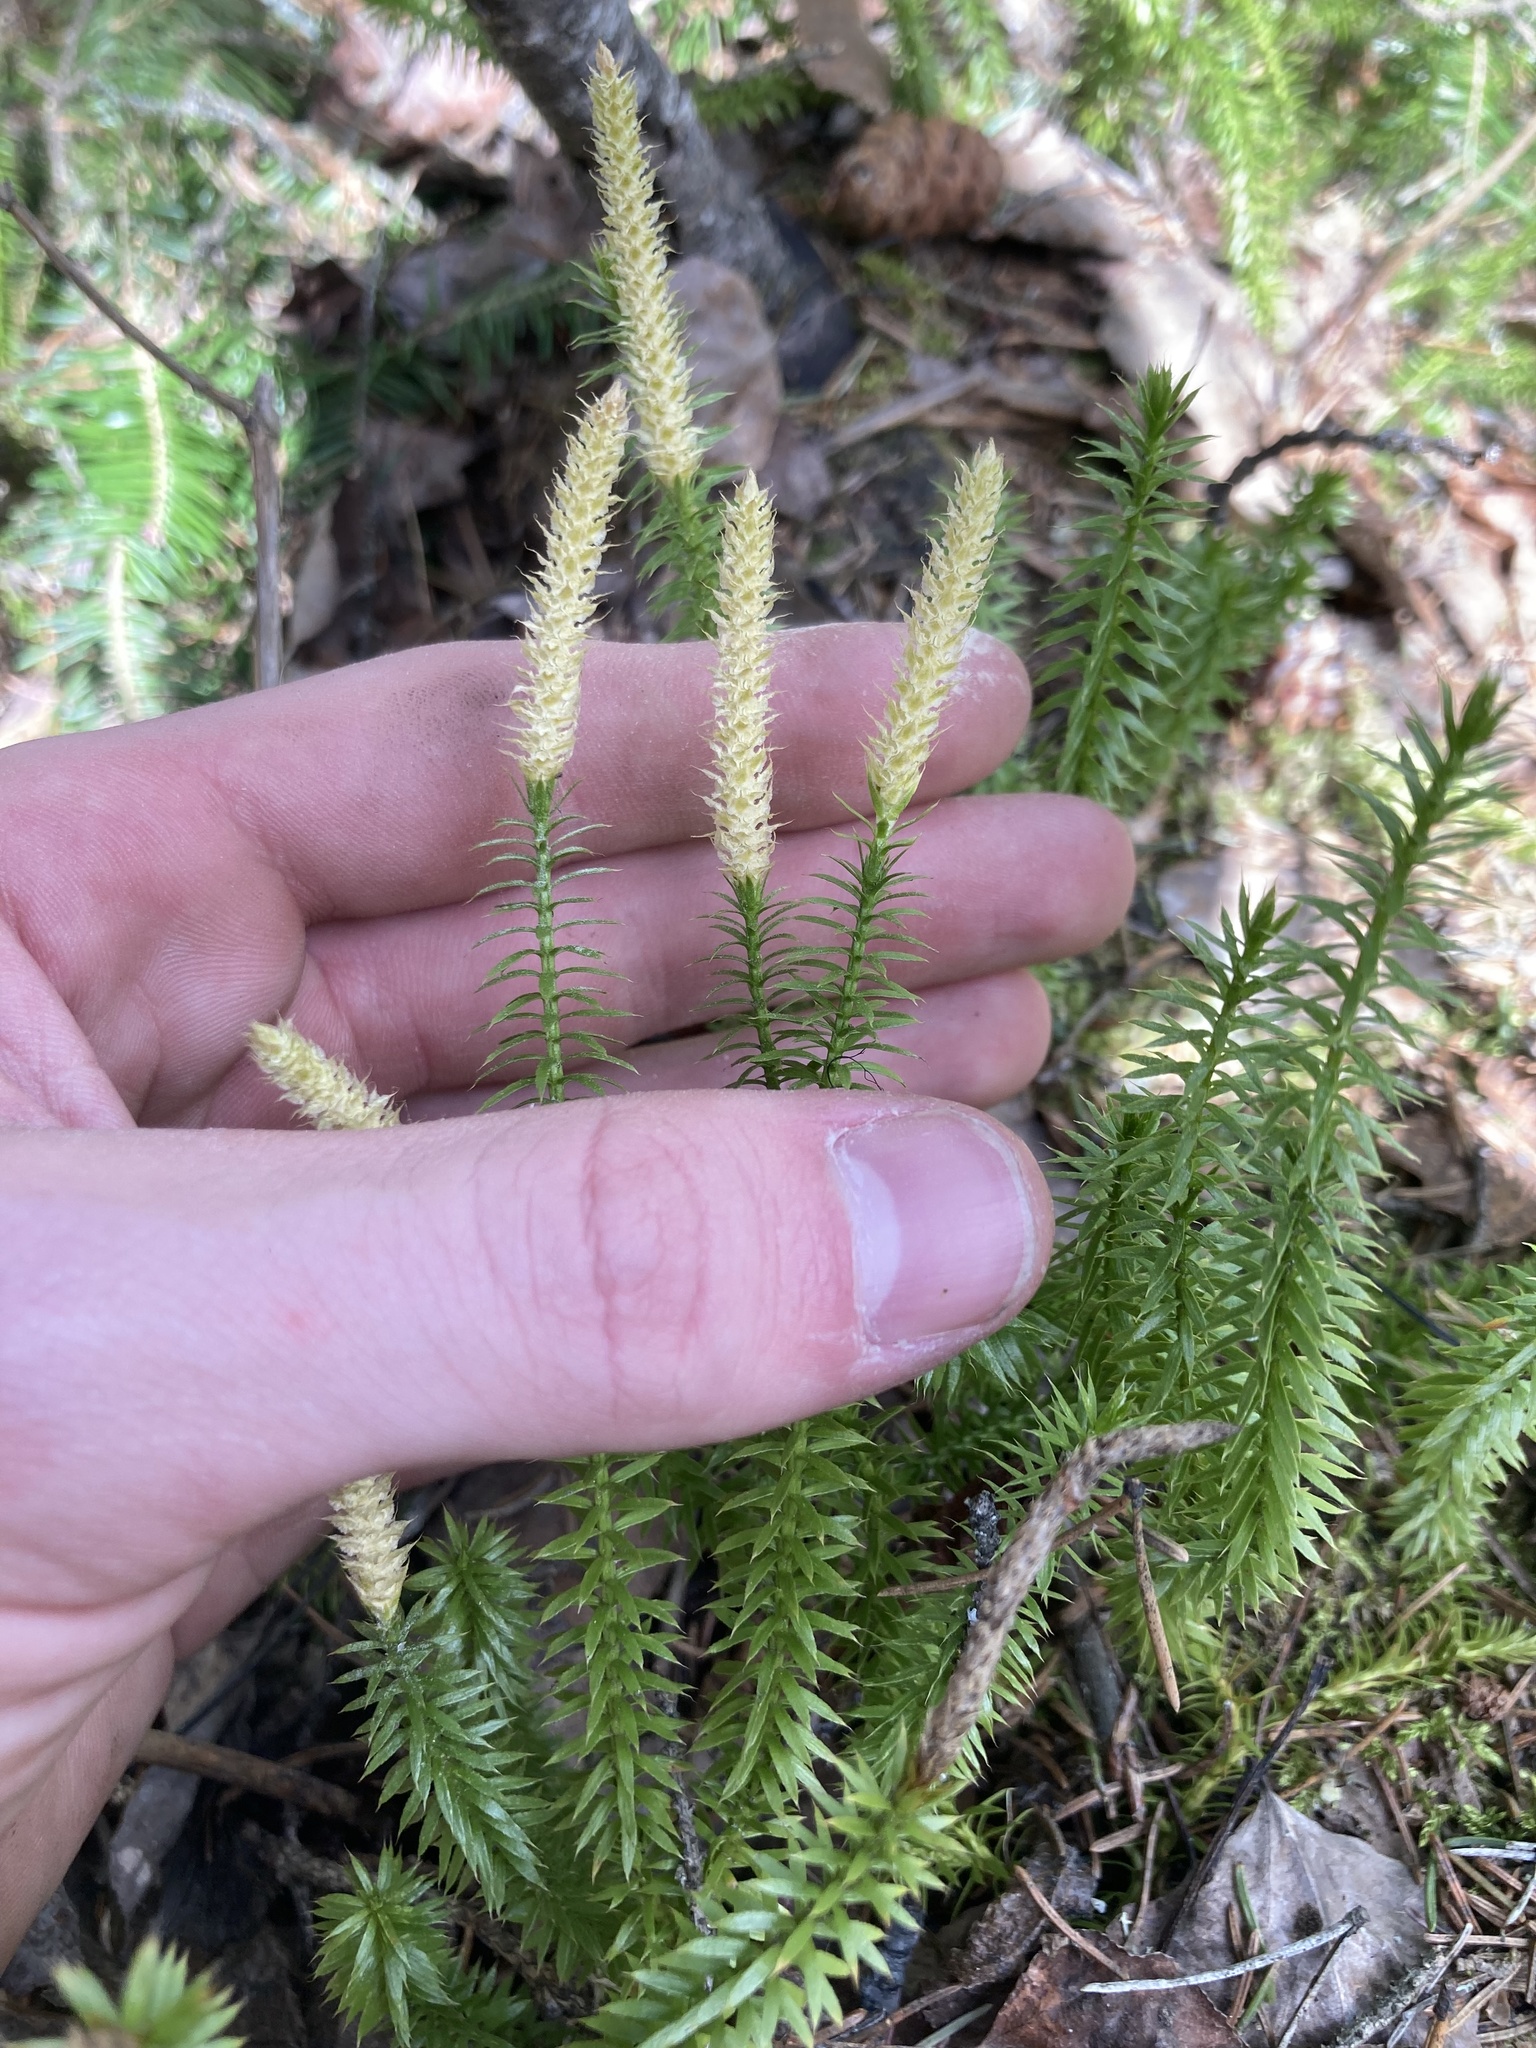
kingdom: Plantae
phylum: Tracheophyta
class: Lycopodiopsida
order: Lycopodiales
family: Lycopodiaceae
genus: Spinulum
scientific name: Spinulum annotinum
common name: Interrupted club-moss
